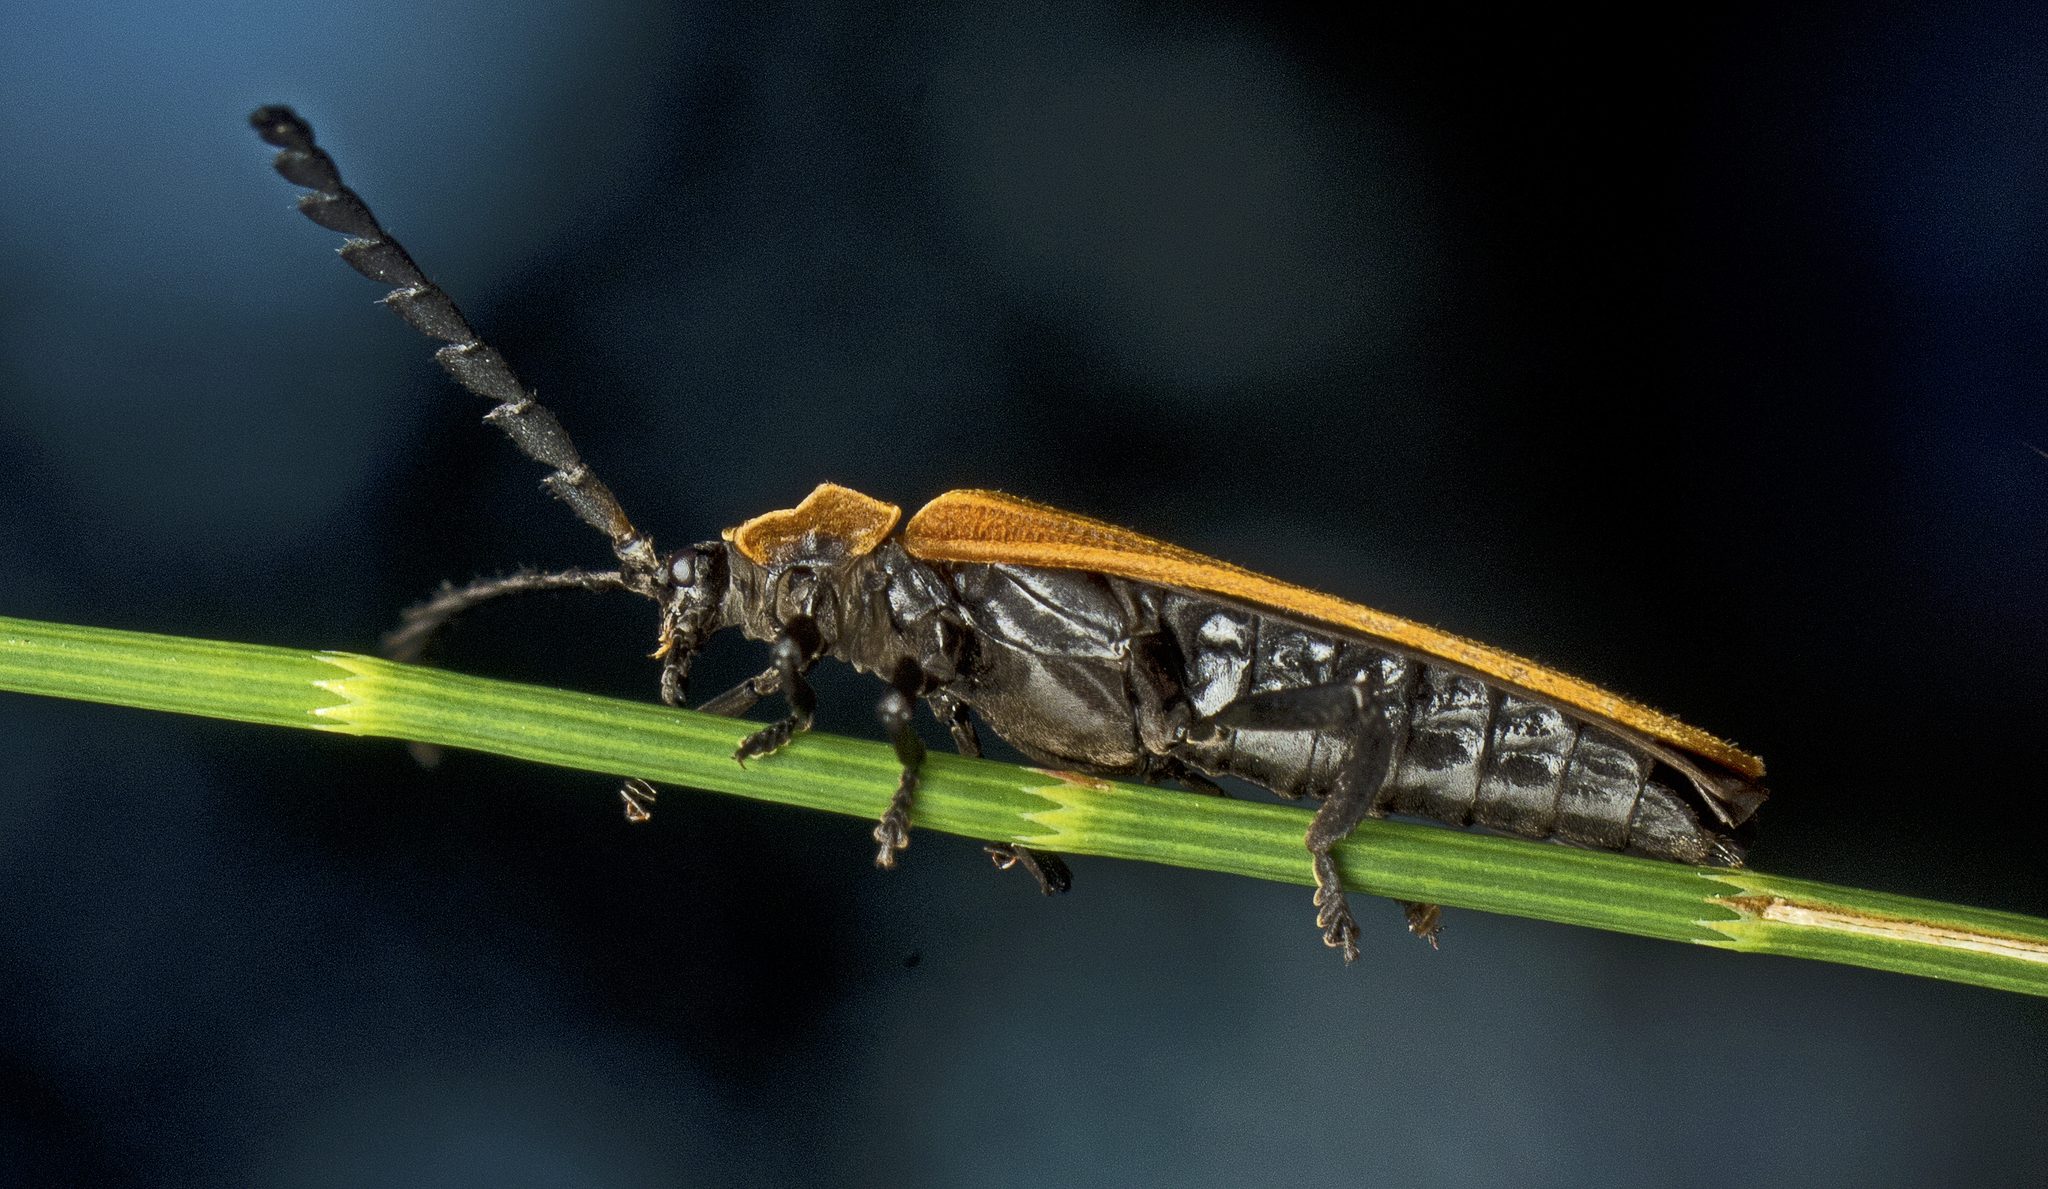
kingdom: Animalia
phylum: Arthropoda
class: Insecta
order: Coleoptera
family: Lycidae
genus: Trichalus
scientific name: Trichalus
